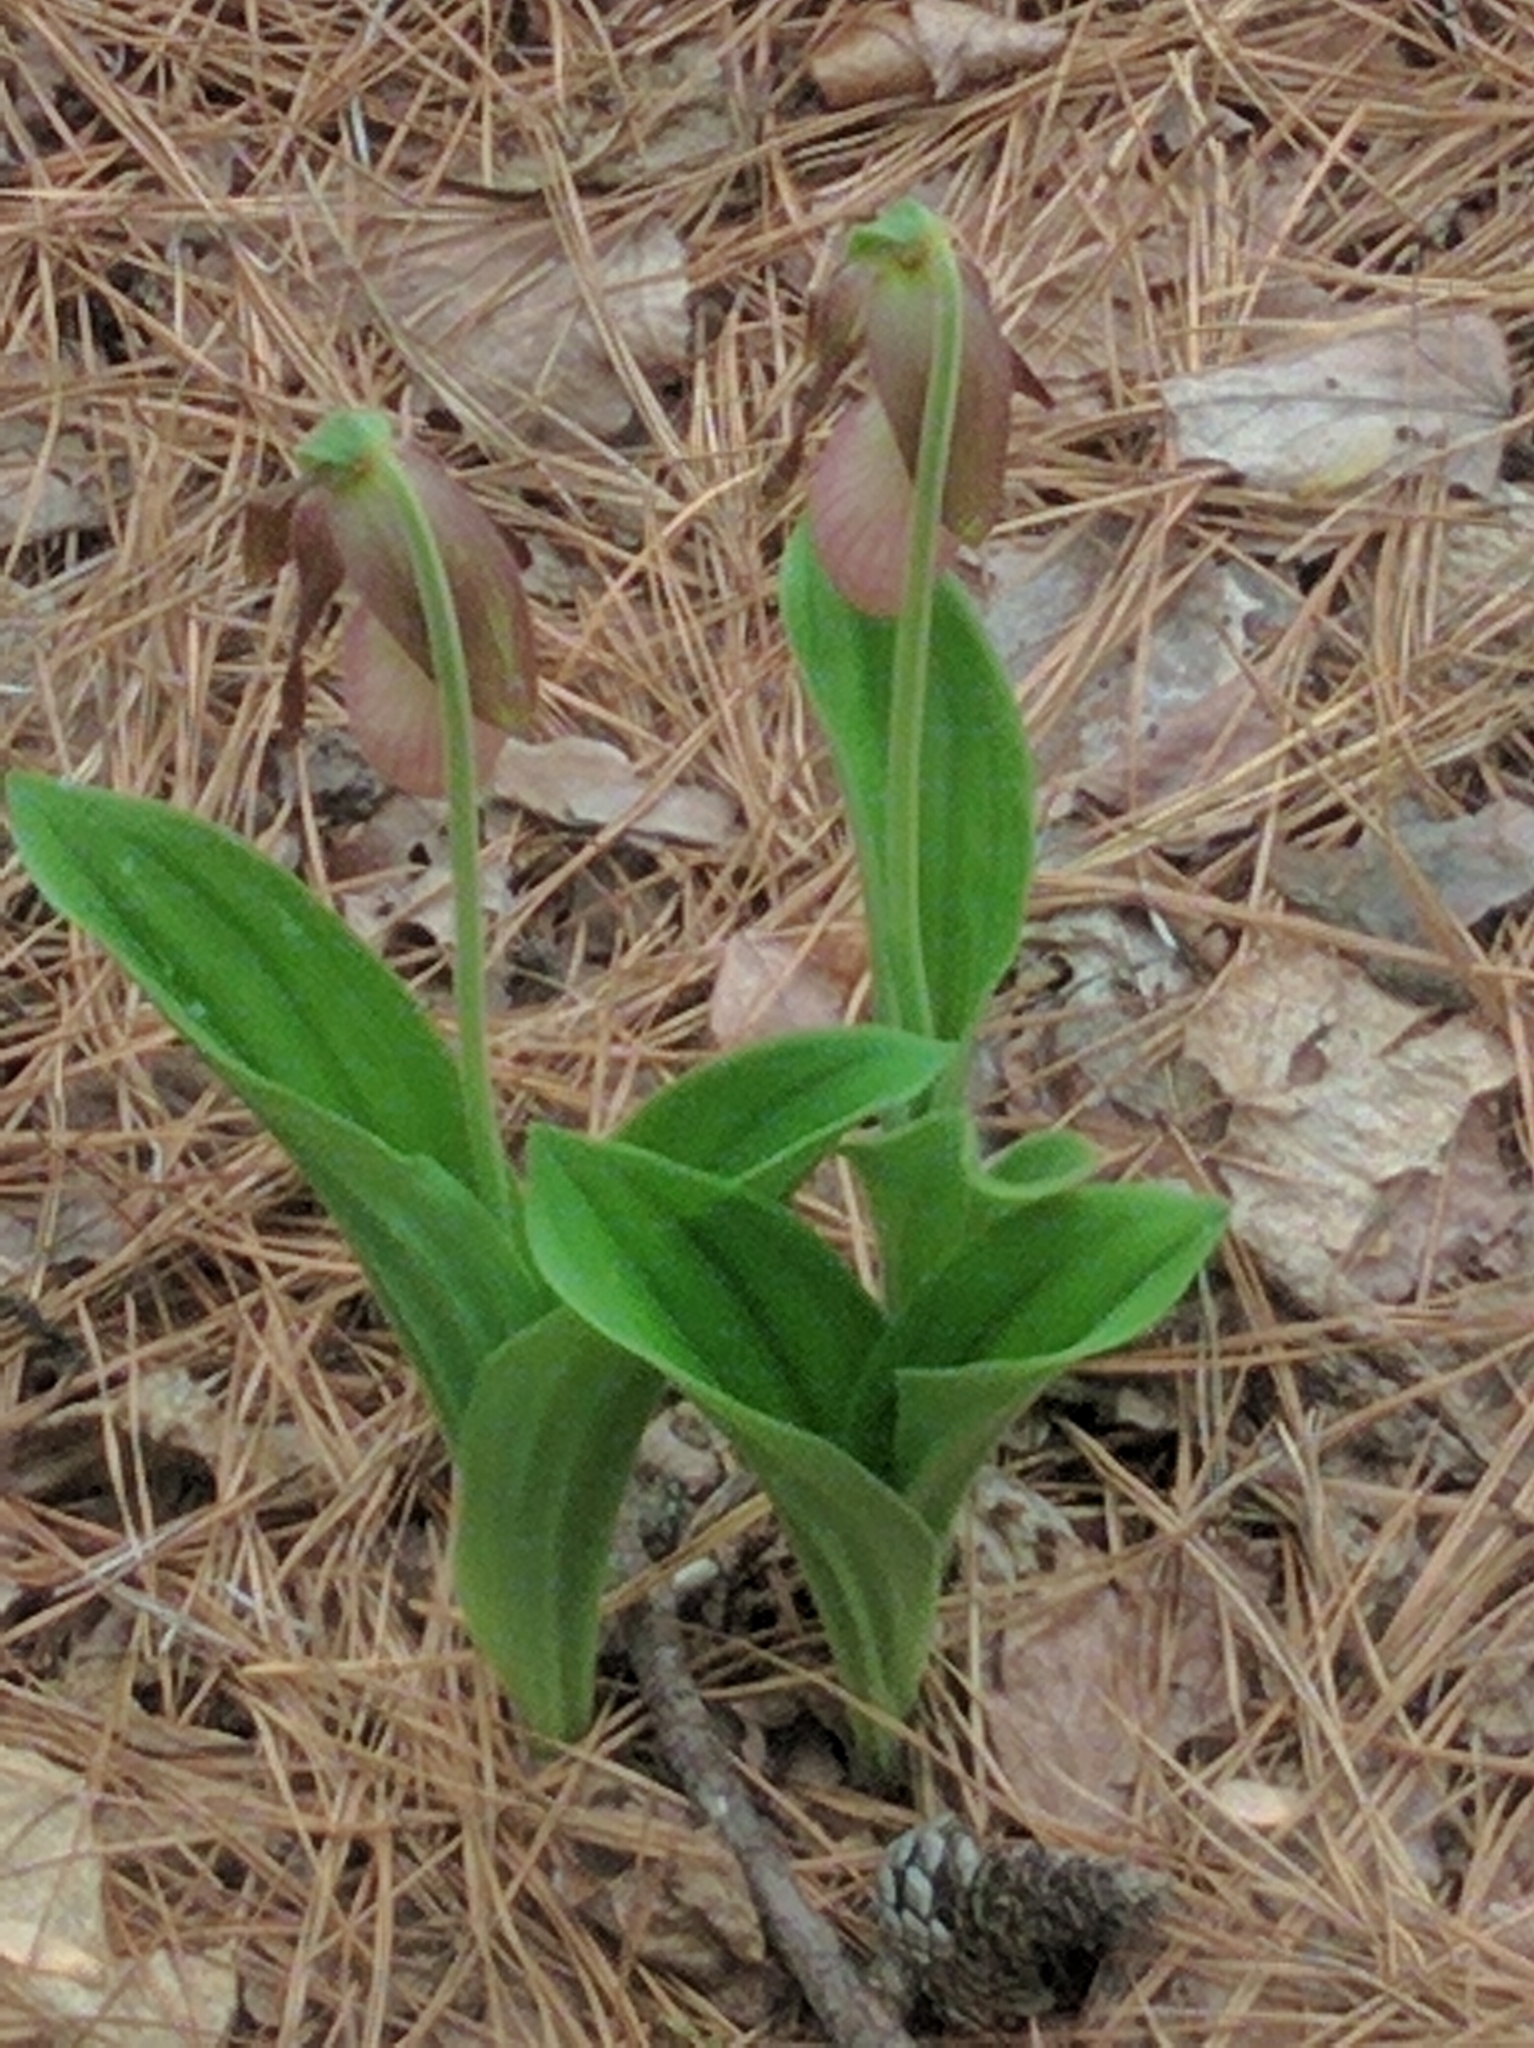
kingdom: Plantae
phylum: Tracheophyta
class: Liliopsida
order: Asparagales
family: Orchidaceae
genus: Cypripedium
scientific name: Cypripedium acaule
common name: Pink lady's-slipper
